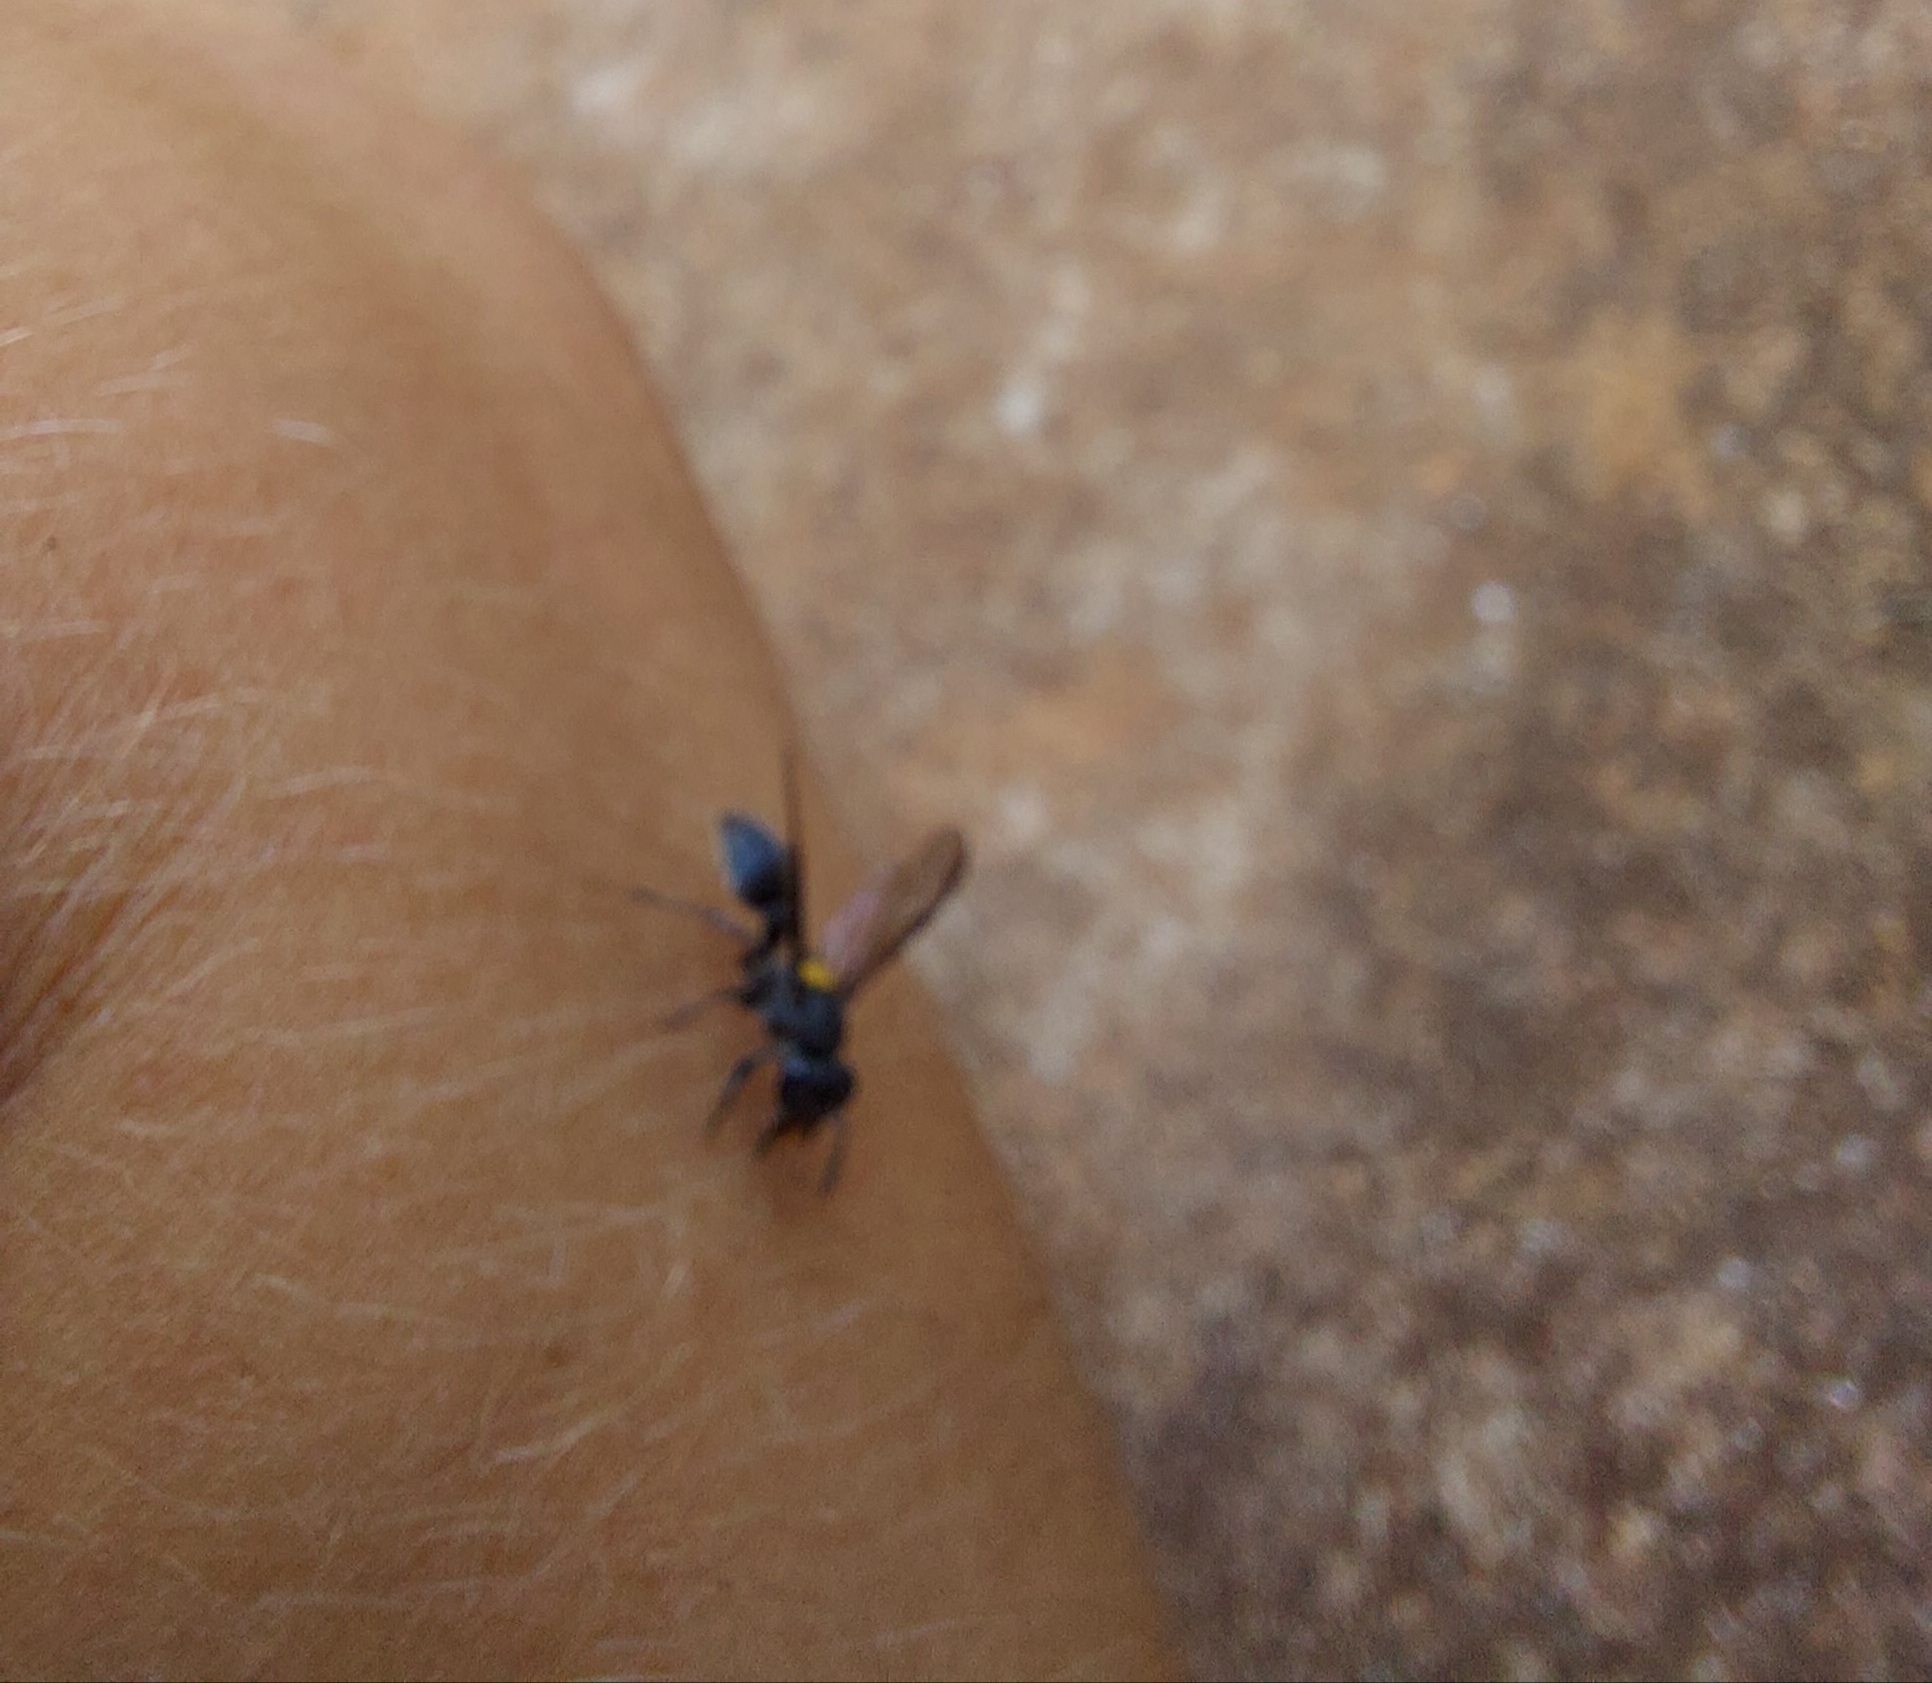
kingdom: Animalia
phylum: Arthropoda
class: Insecta
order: Hymenoptera
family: Eumenidae
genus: Polybia
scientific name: Polybia jurinei
